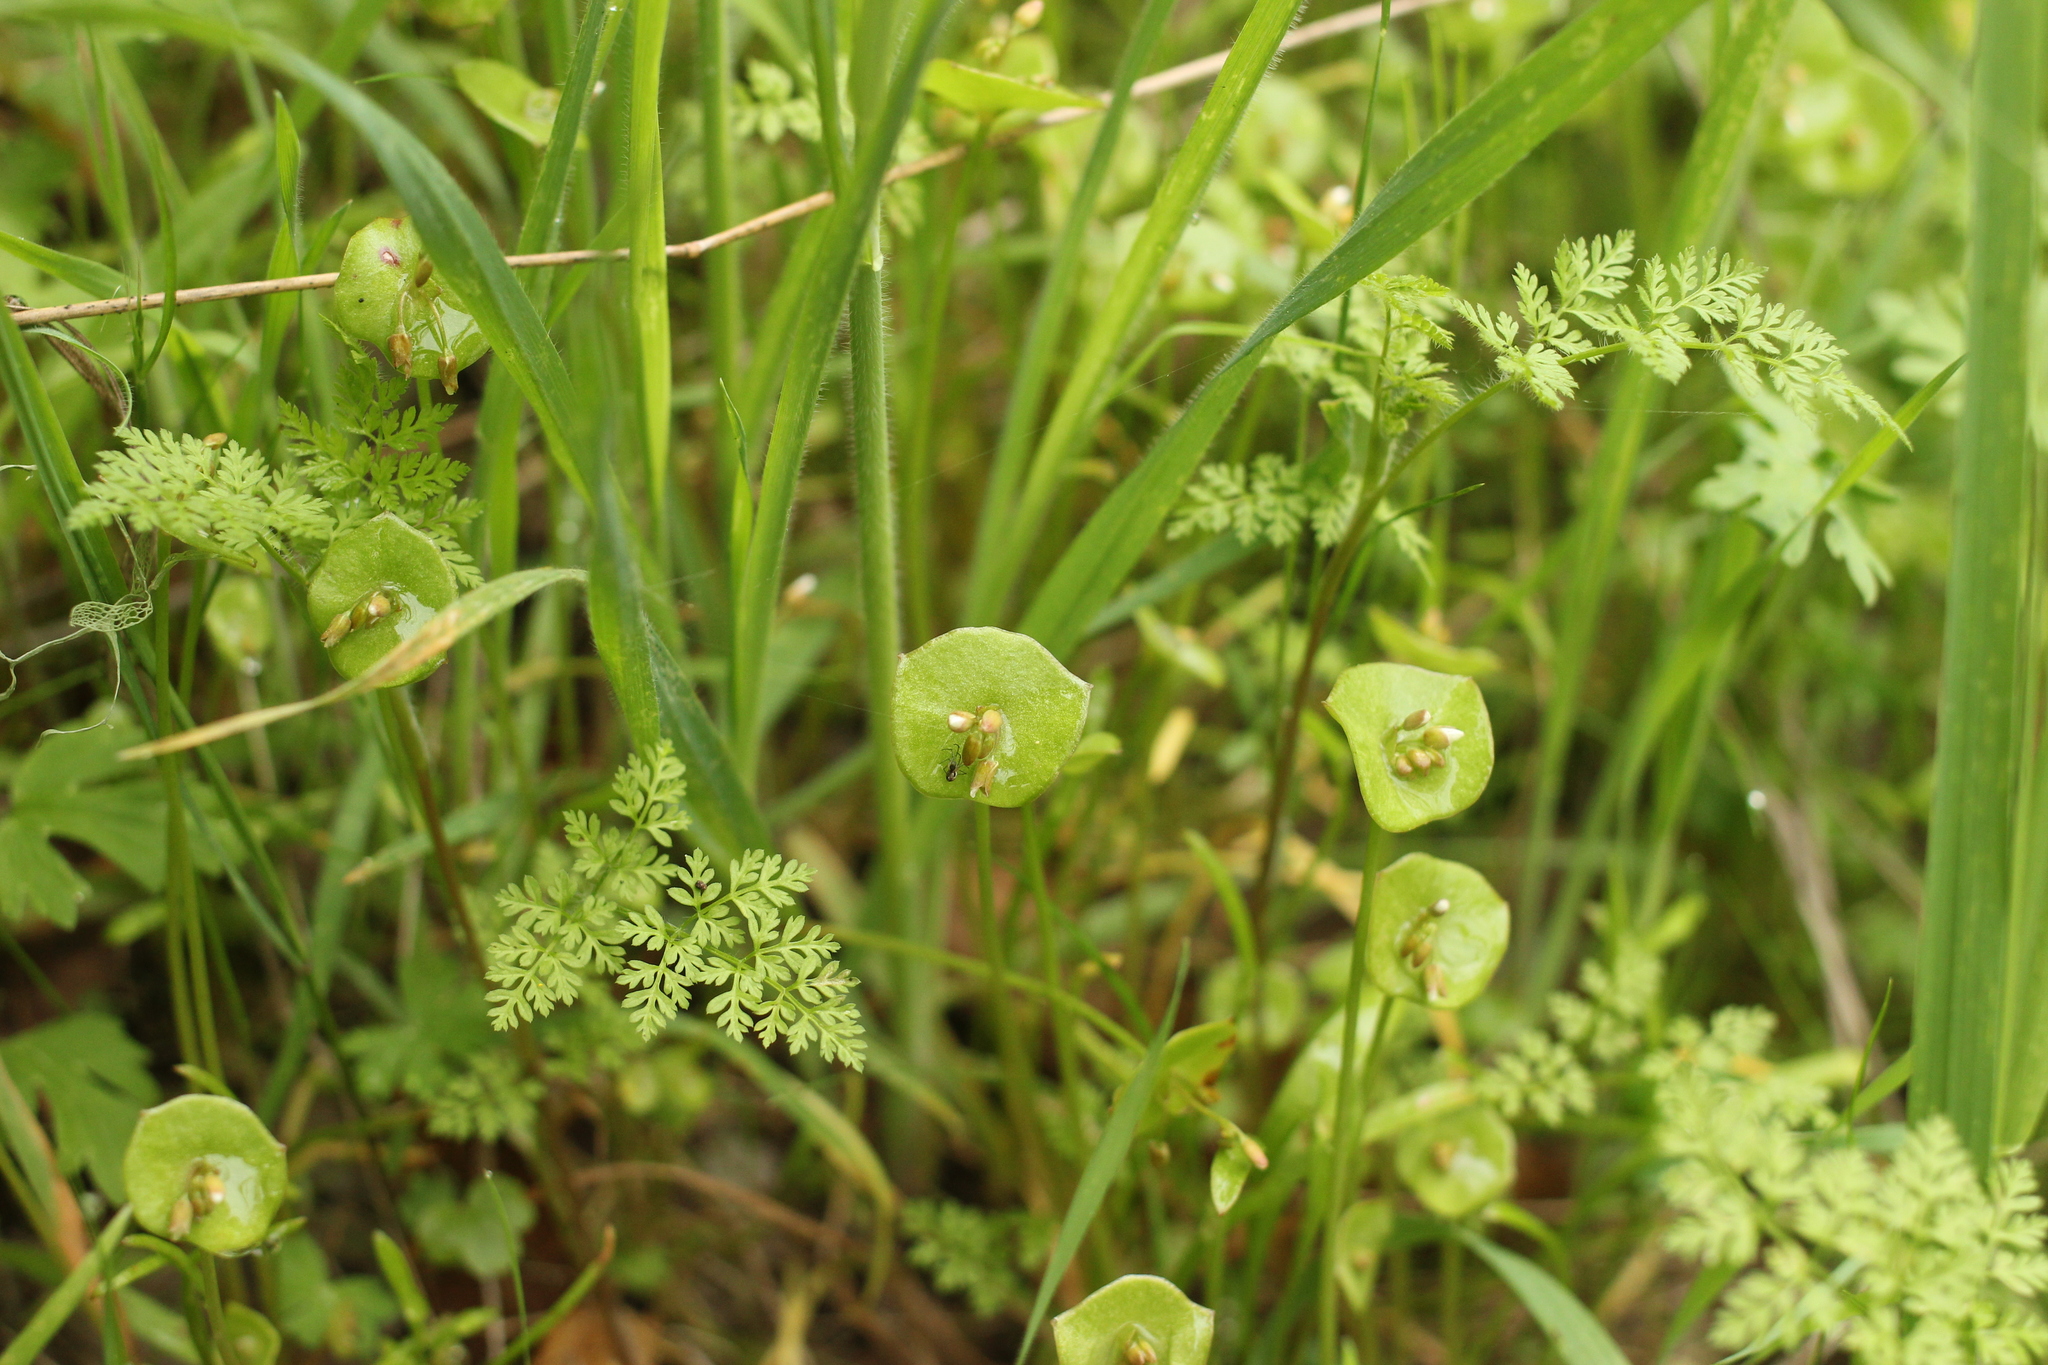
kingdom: Plantae
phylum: Tracheophyta
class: Magnoliopsida
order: Caryophyllales
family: Montiaceae
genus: Claytonia
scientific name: Claytonia perfoliata
